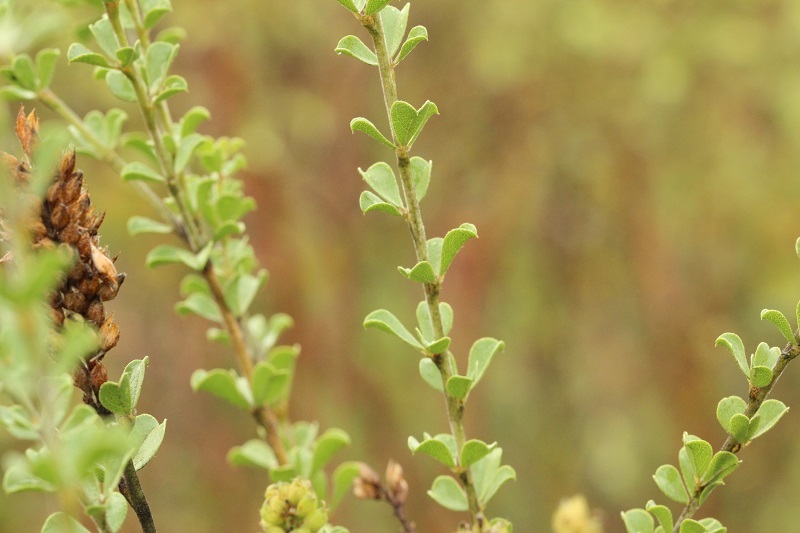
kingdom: Plantae
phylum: Tracheophyta
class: Magnoliopsida
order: Fabales
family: Fabaceae
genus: Psoralea
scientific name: Psoralea stachyera
